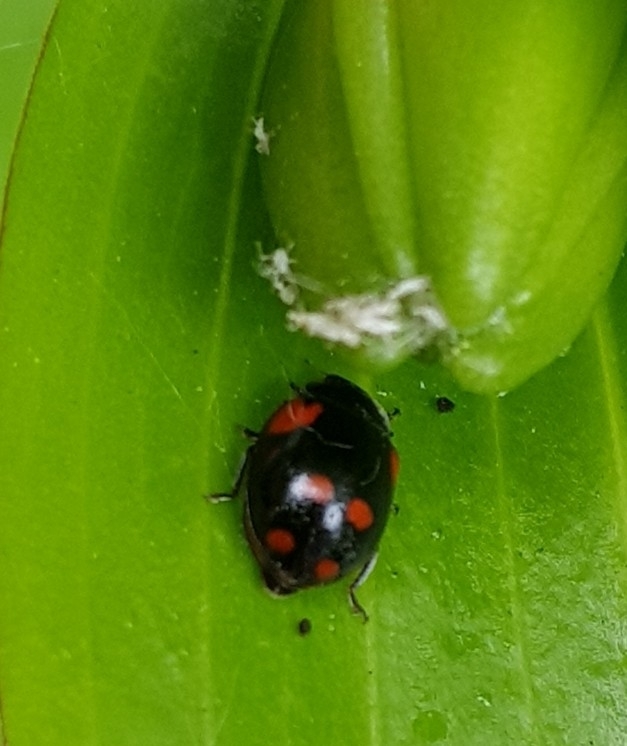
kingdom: Animalia
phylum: Arthropoda
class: Insecta
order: Coleoptera
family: Coccinellidae
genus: Adalia
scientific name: Adalia bipunctata
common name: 2-spot ladybird
